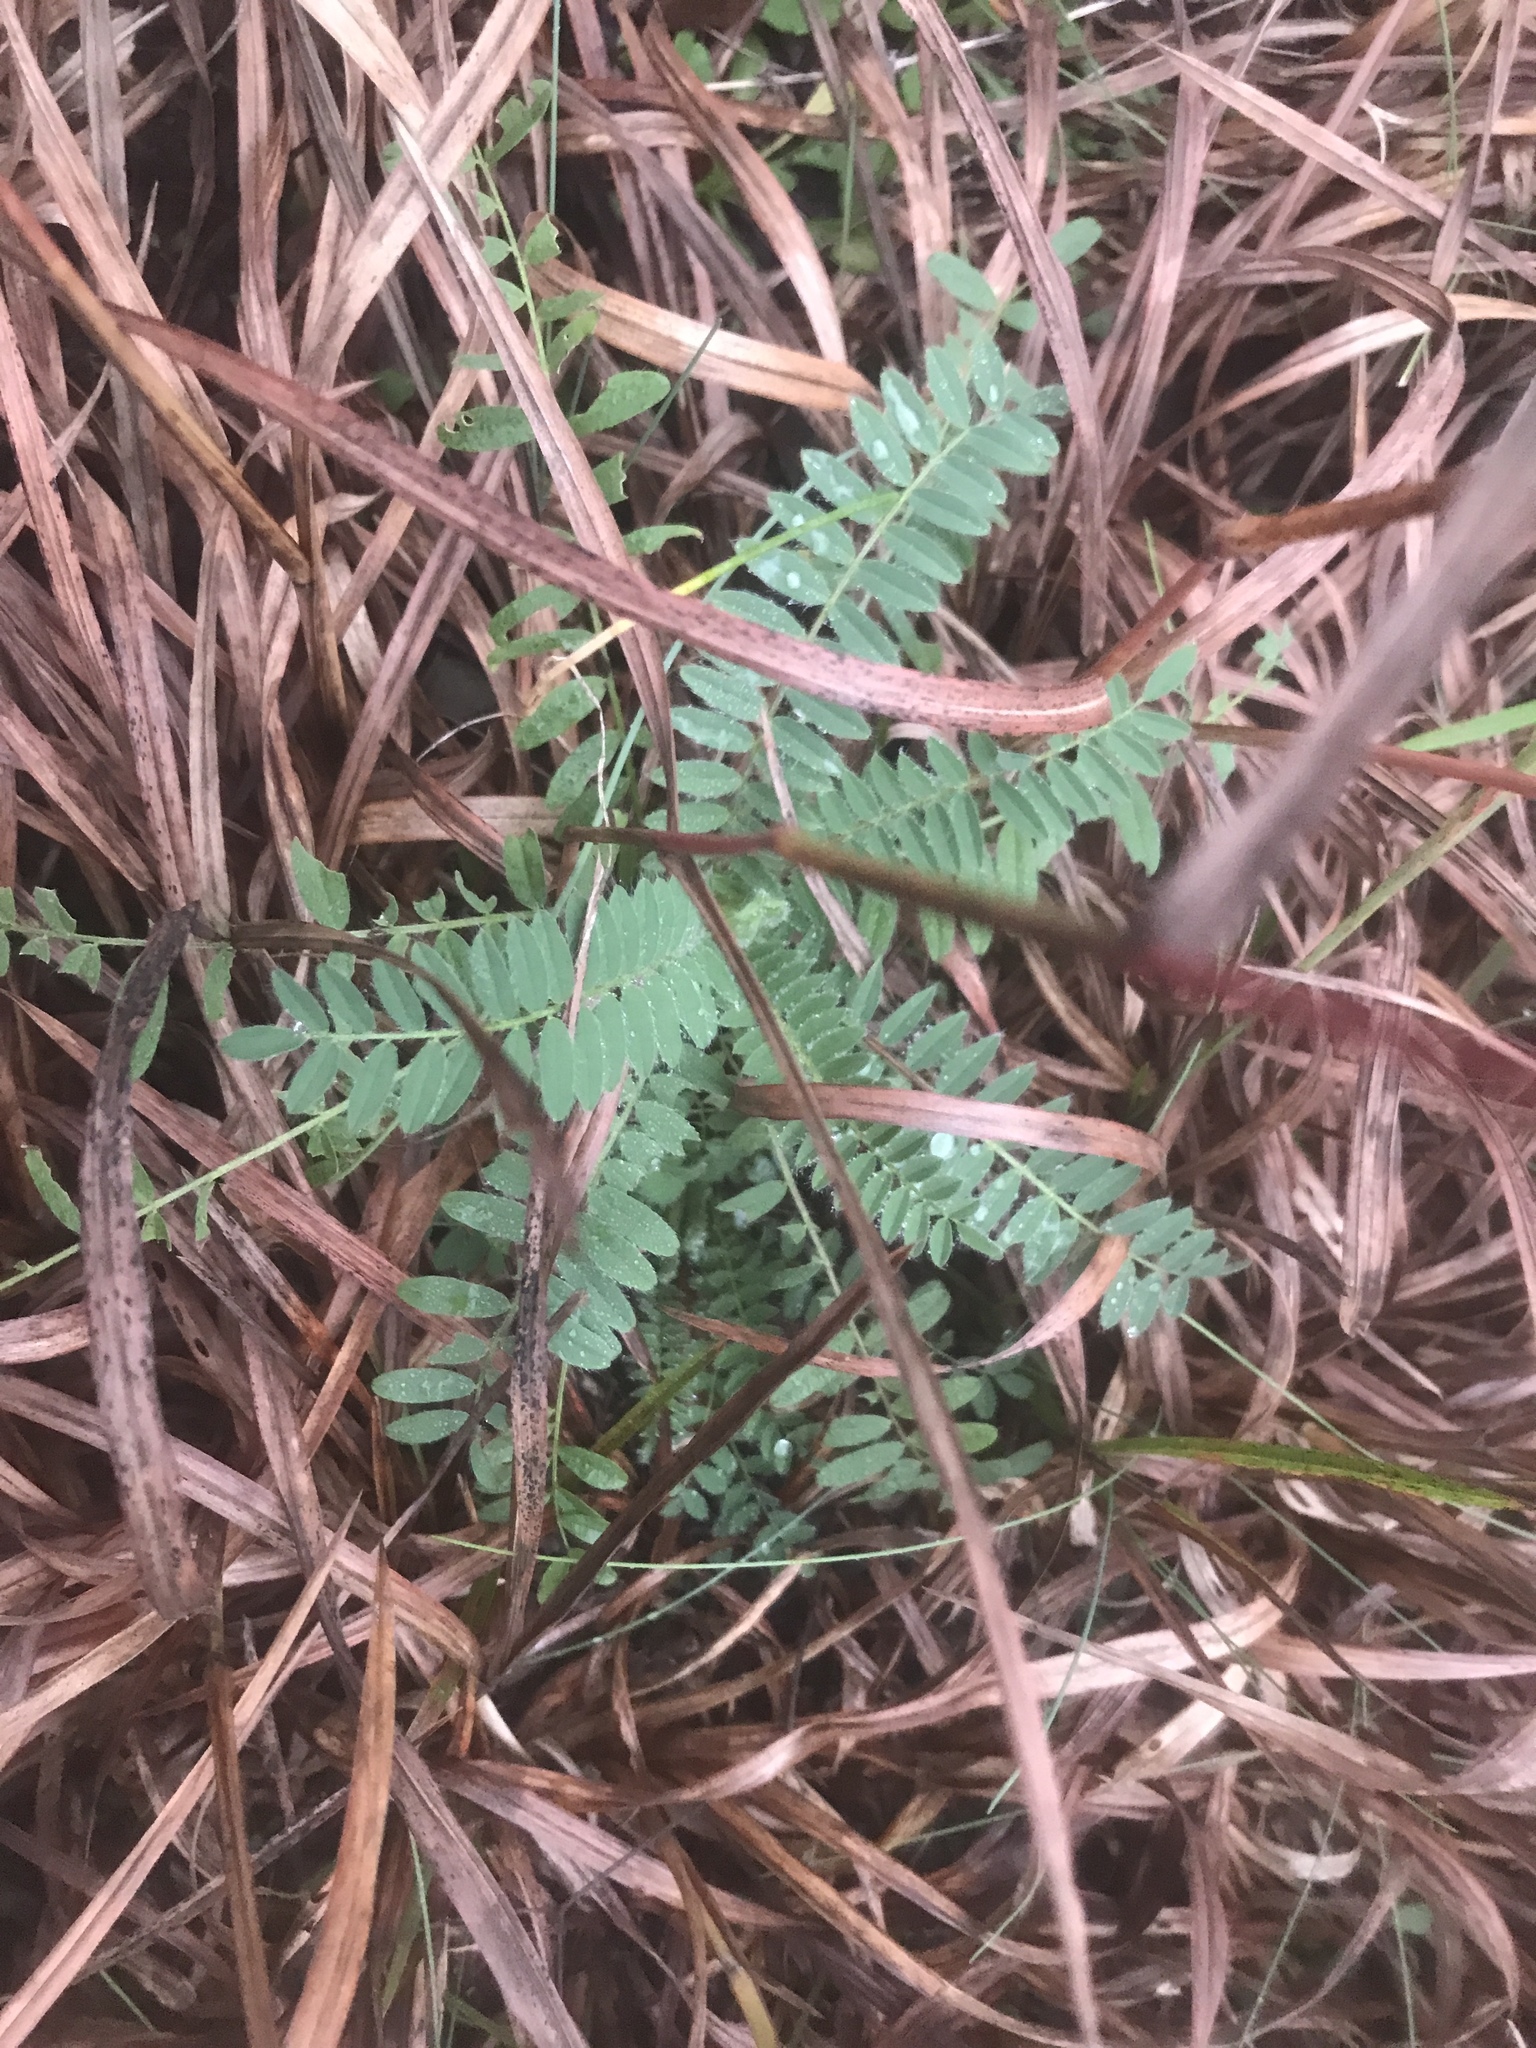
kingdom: Plantae
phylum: Tracheophyta
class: Magnoliopsida
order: Fabales
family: Fabaceae
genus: Astragalus
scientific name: Astragalus bibullatus
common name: Pyne's ground-plum
